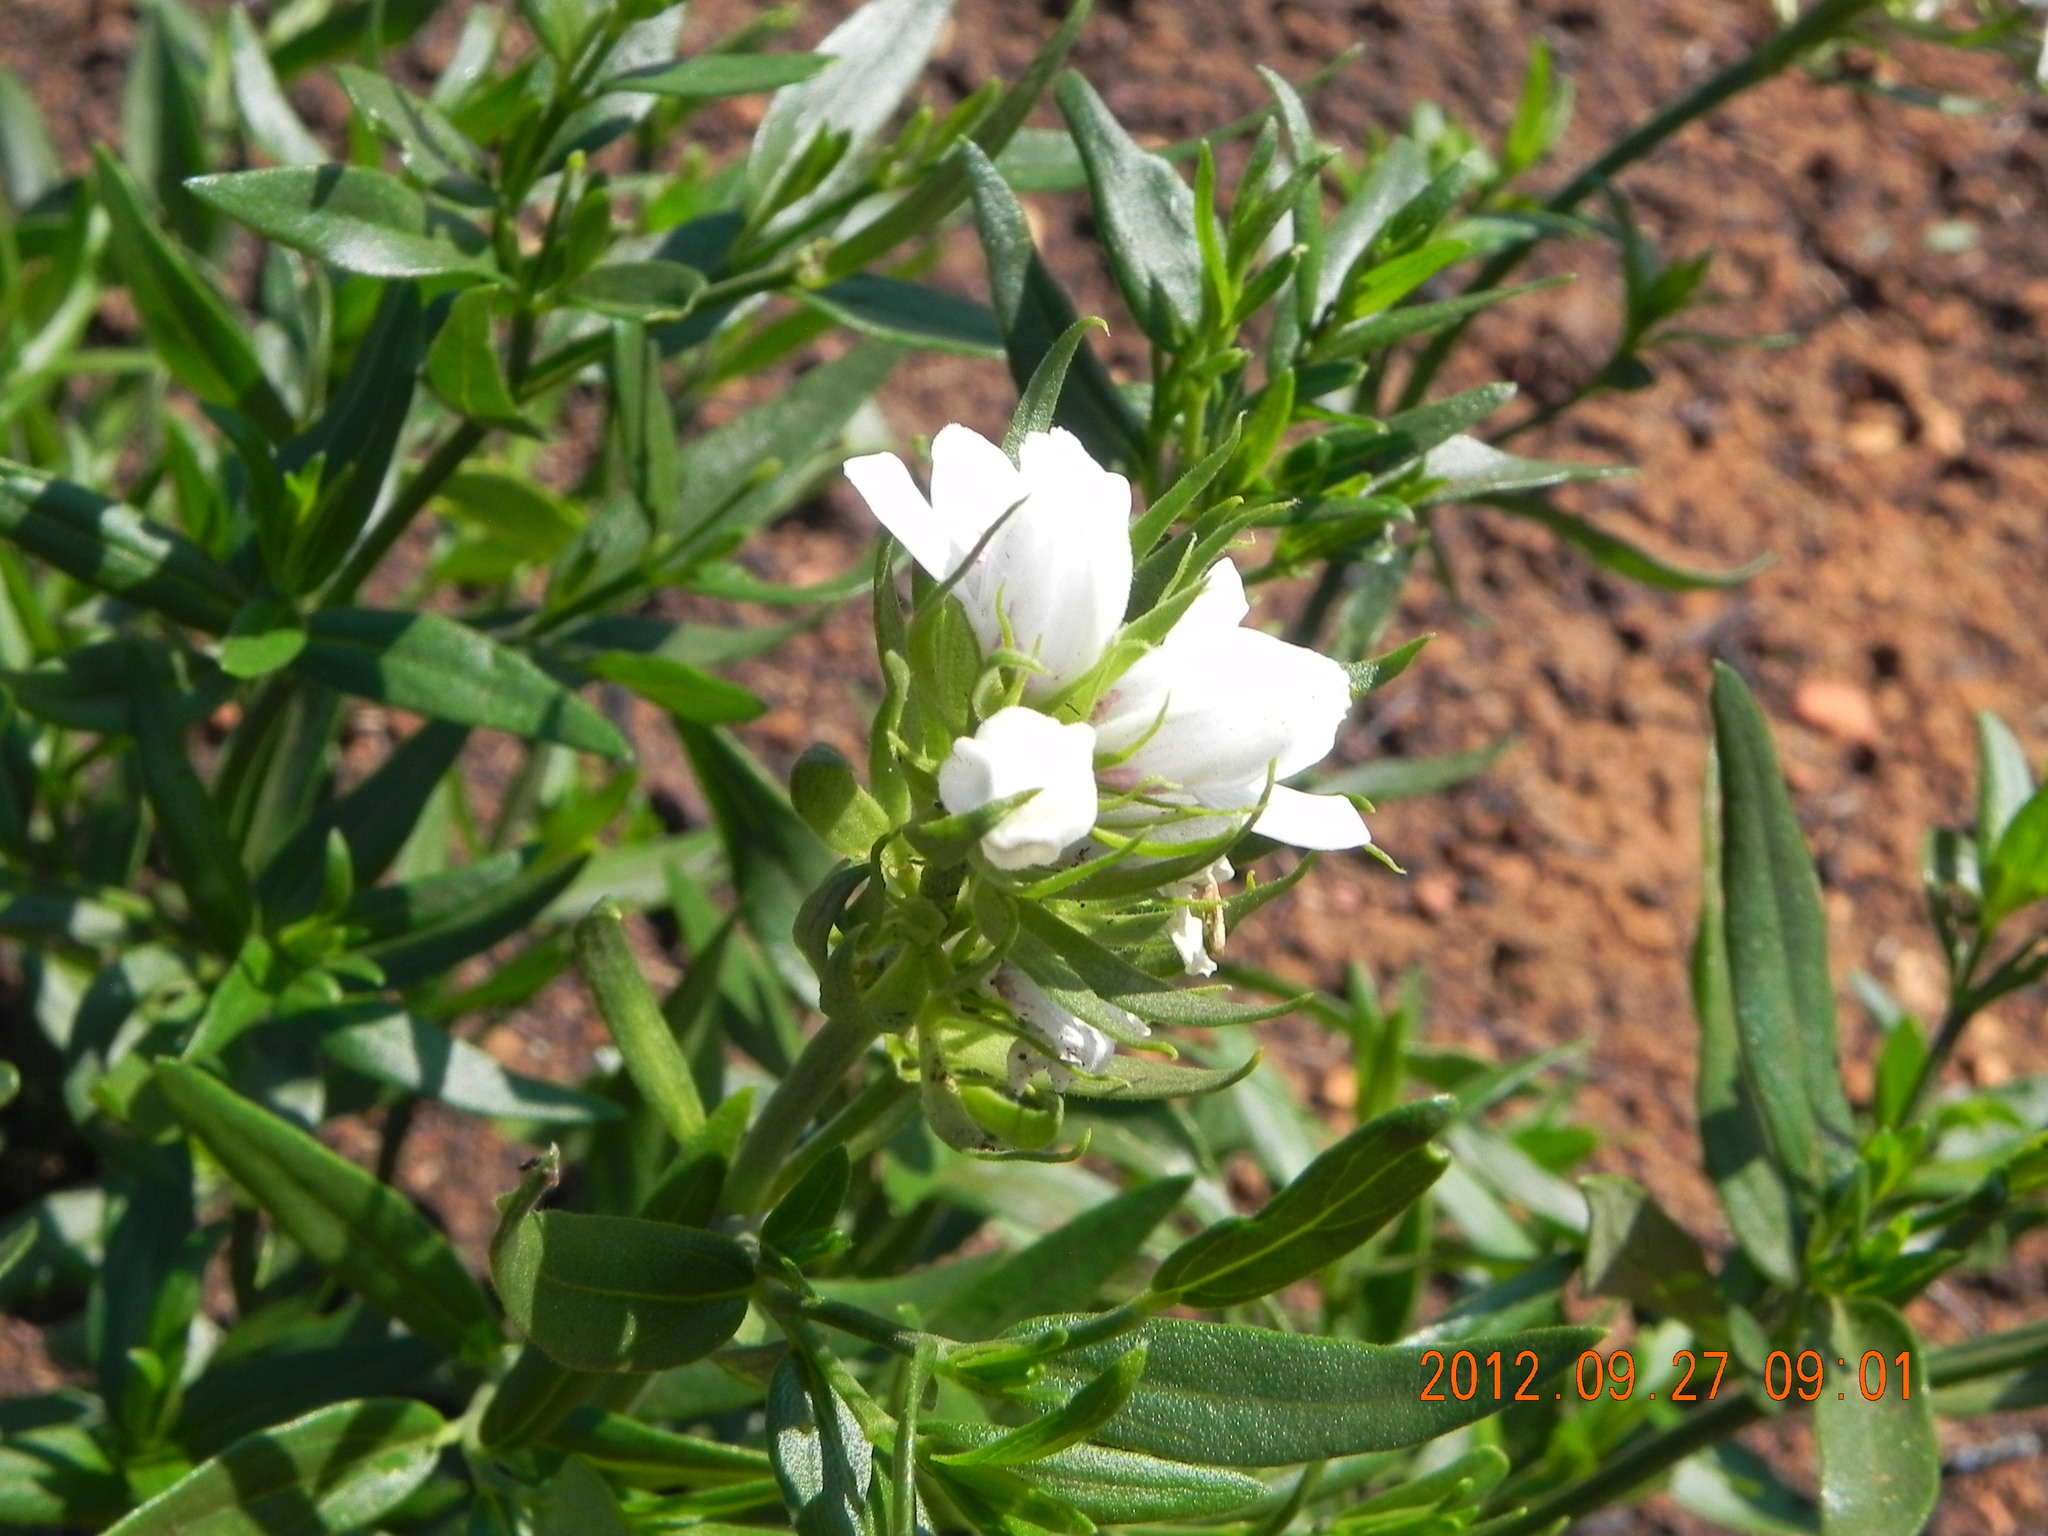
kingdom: Plantae
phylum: Tracheophyta
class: Magnoliopsida
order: Lamiales
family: Acanthaceae
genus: Justicia
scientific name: Justicia andromeda
